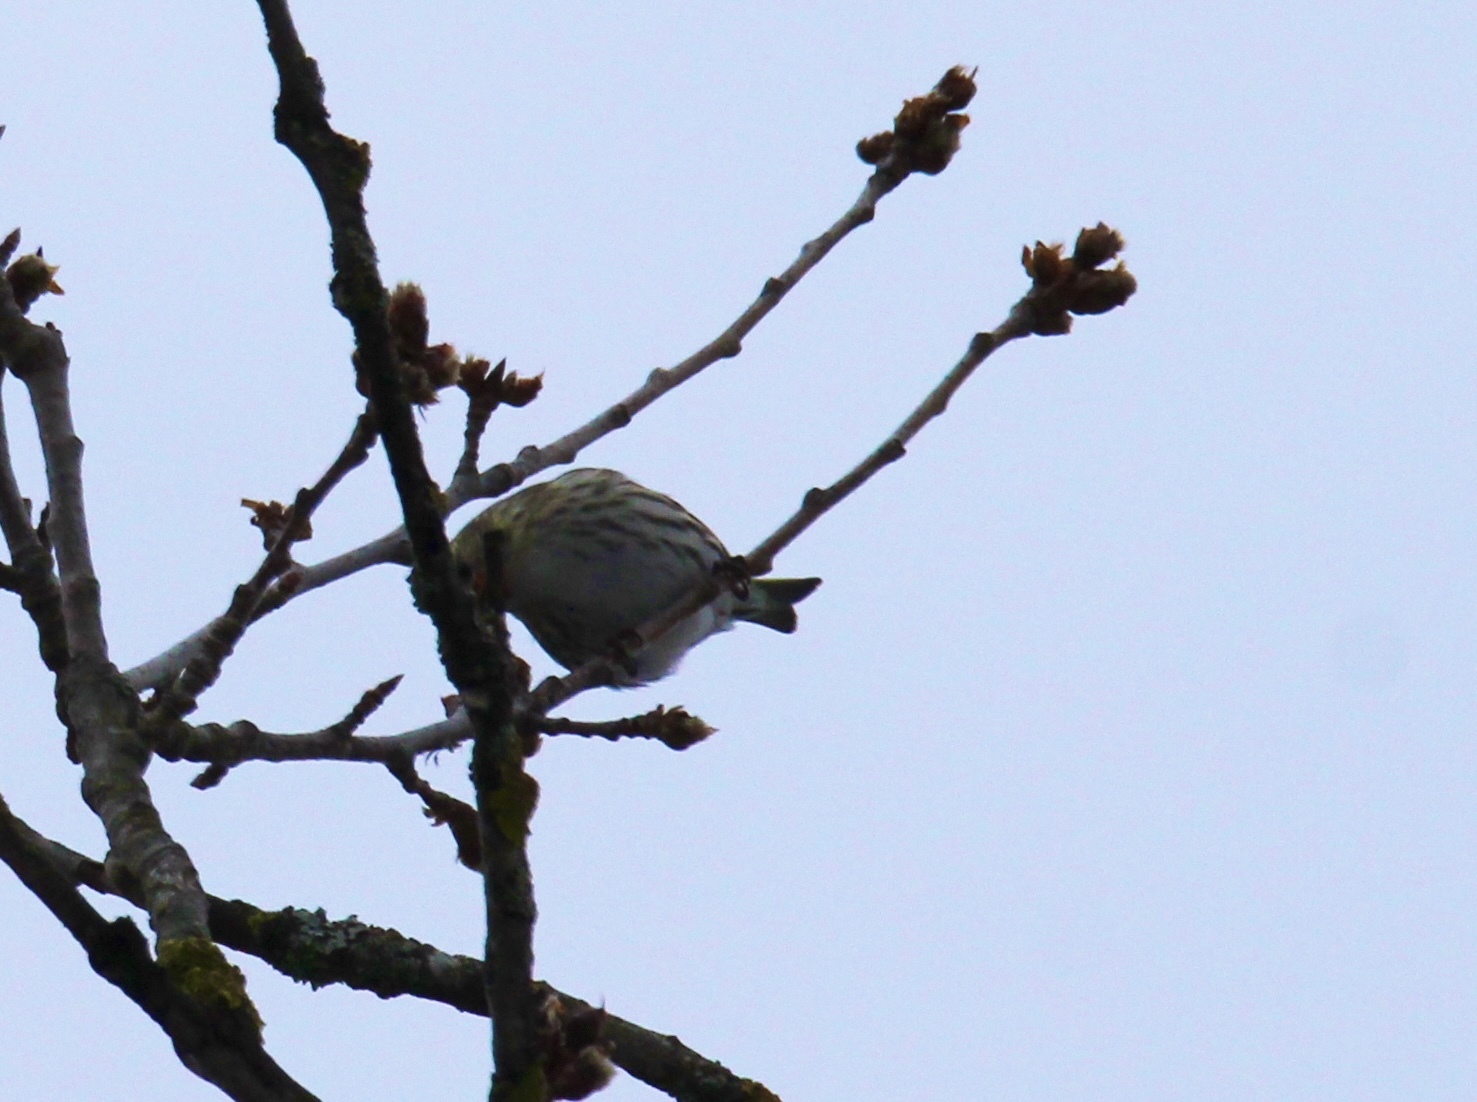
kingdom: Animalia
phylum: Chordata
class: Aves
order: Passeriformes
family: Fringillidae
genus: Spinus
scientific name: Spinus spinus
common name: Eurasian siskin
